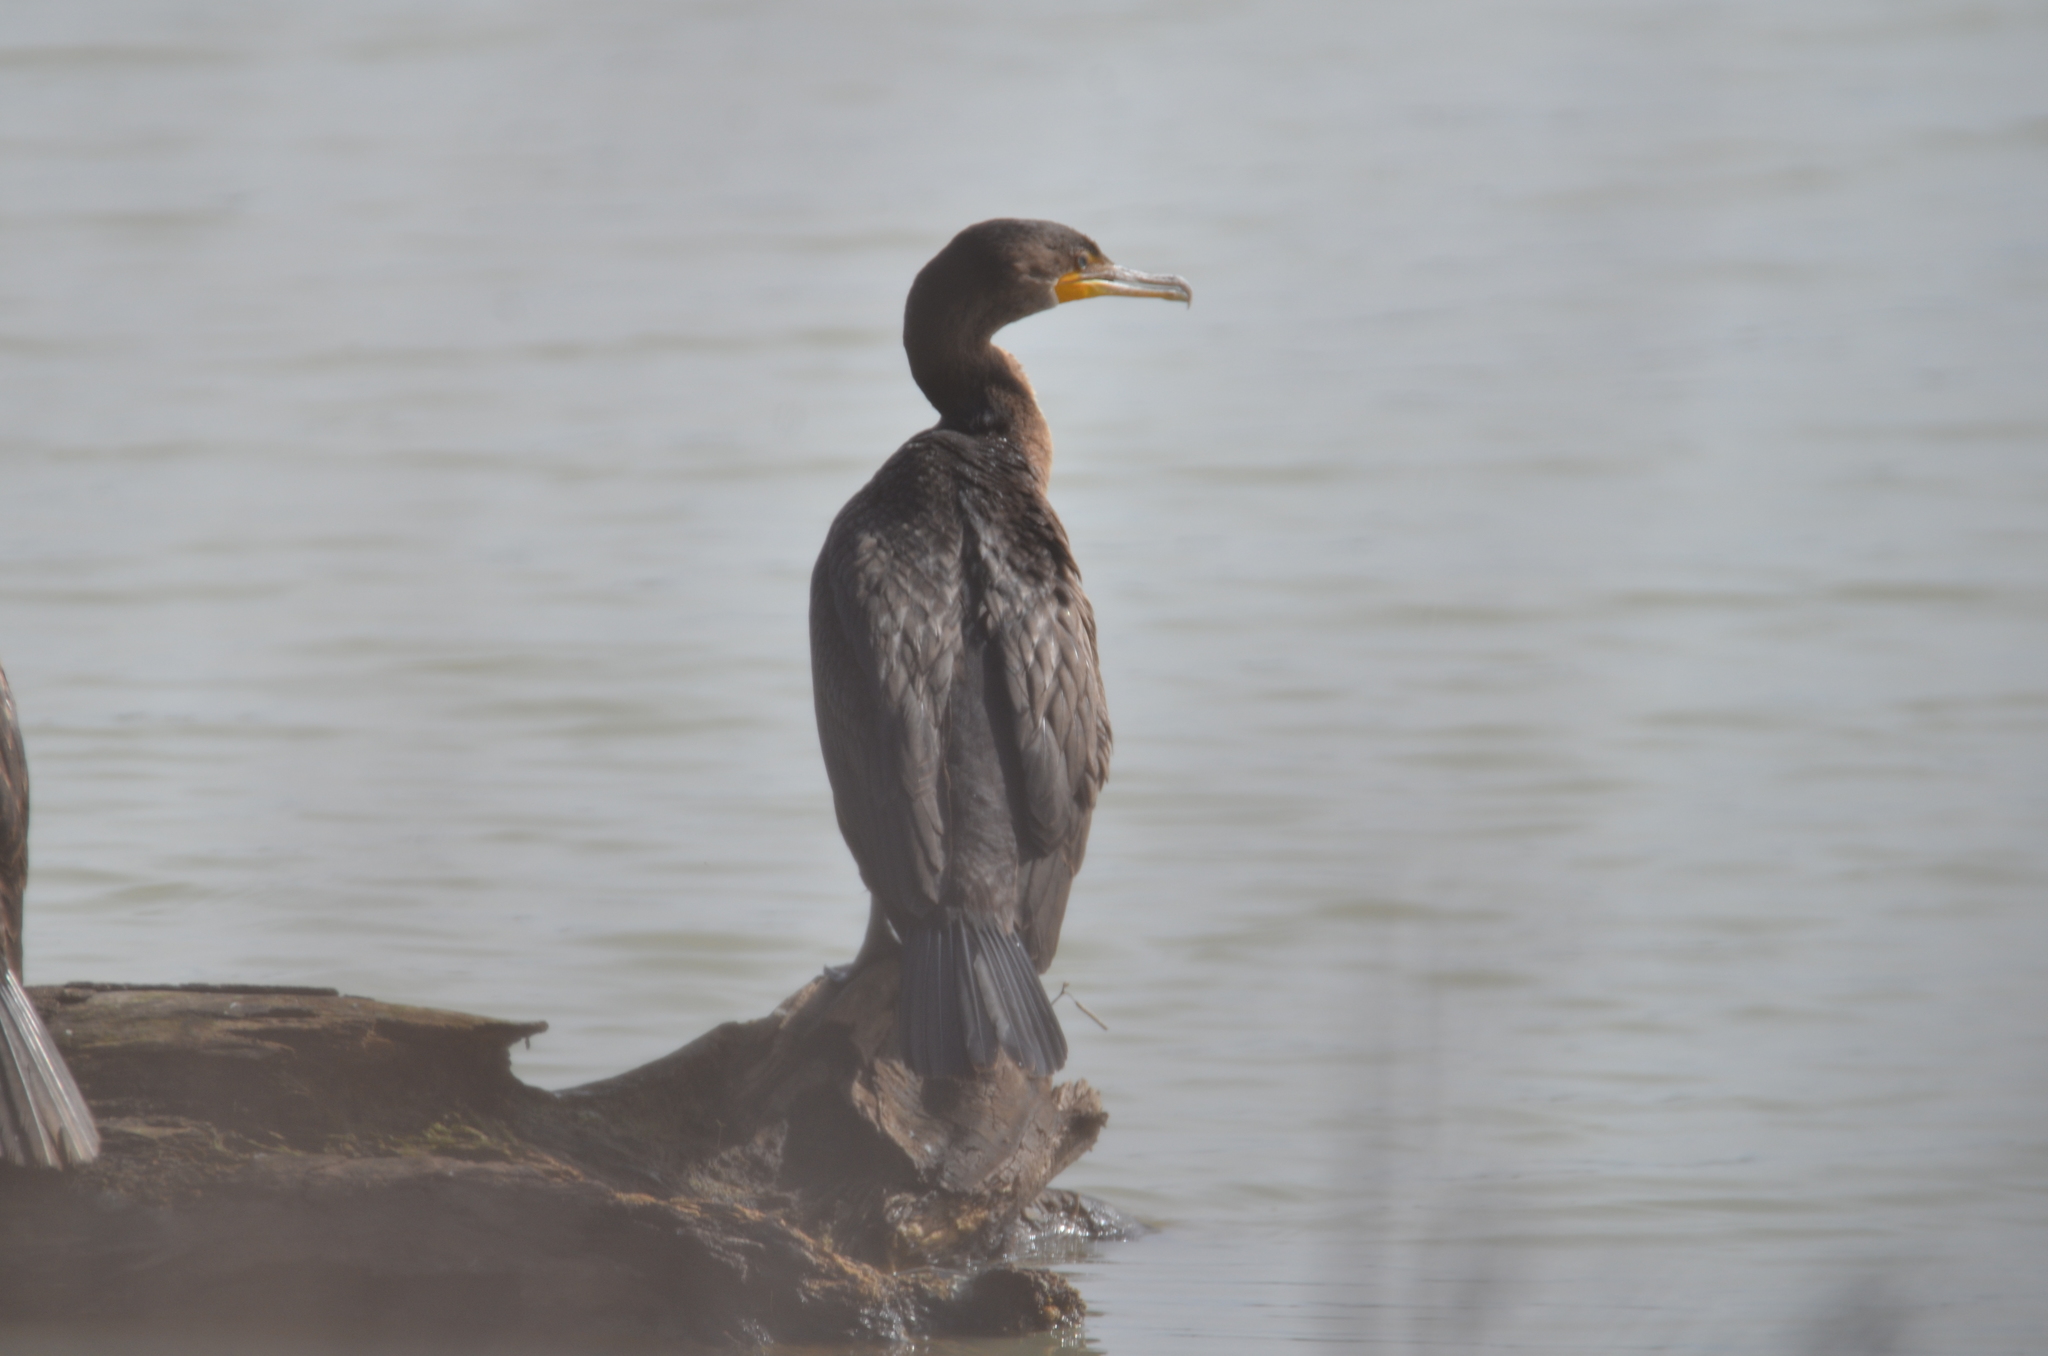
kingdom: Animalia
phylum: Chordata
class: Aves
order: Suliformes
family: Phalacrocoracidae
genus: Phalacrocorax
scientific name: Phalacrocorax brasilianus
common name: Neotropic cormorant
